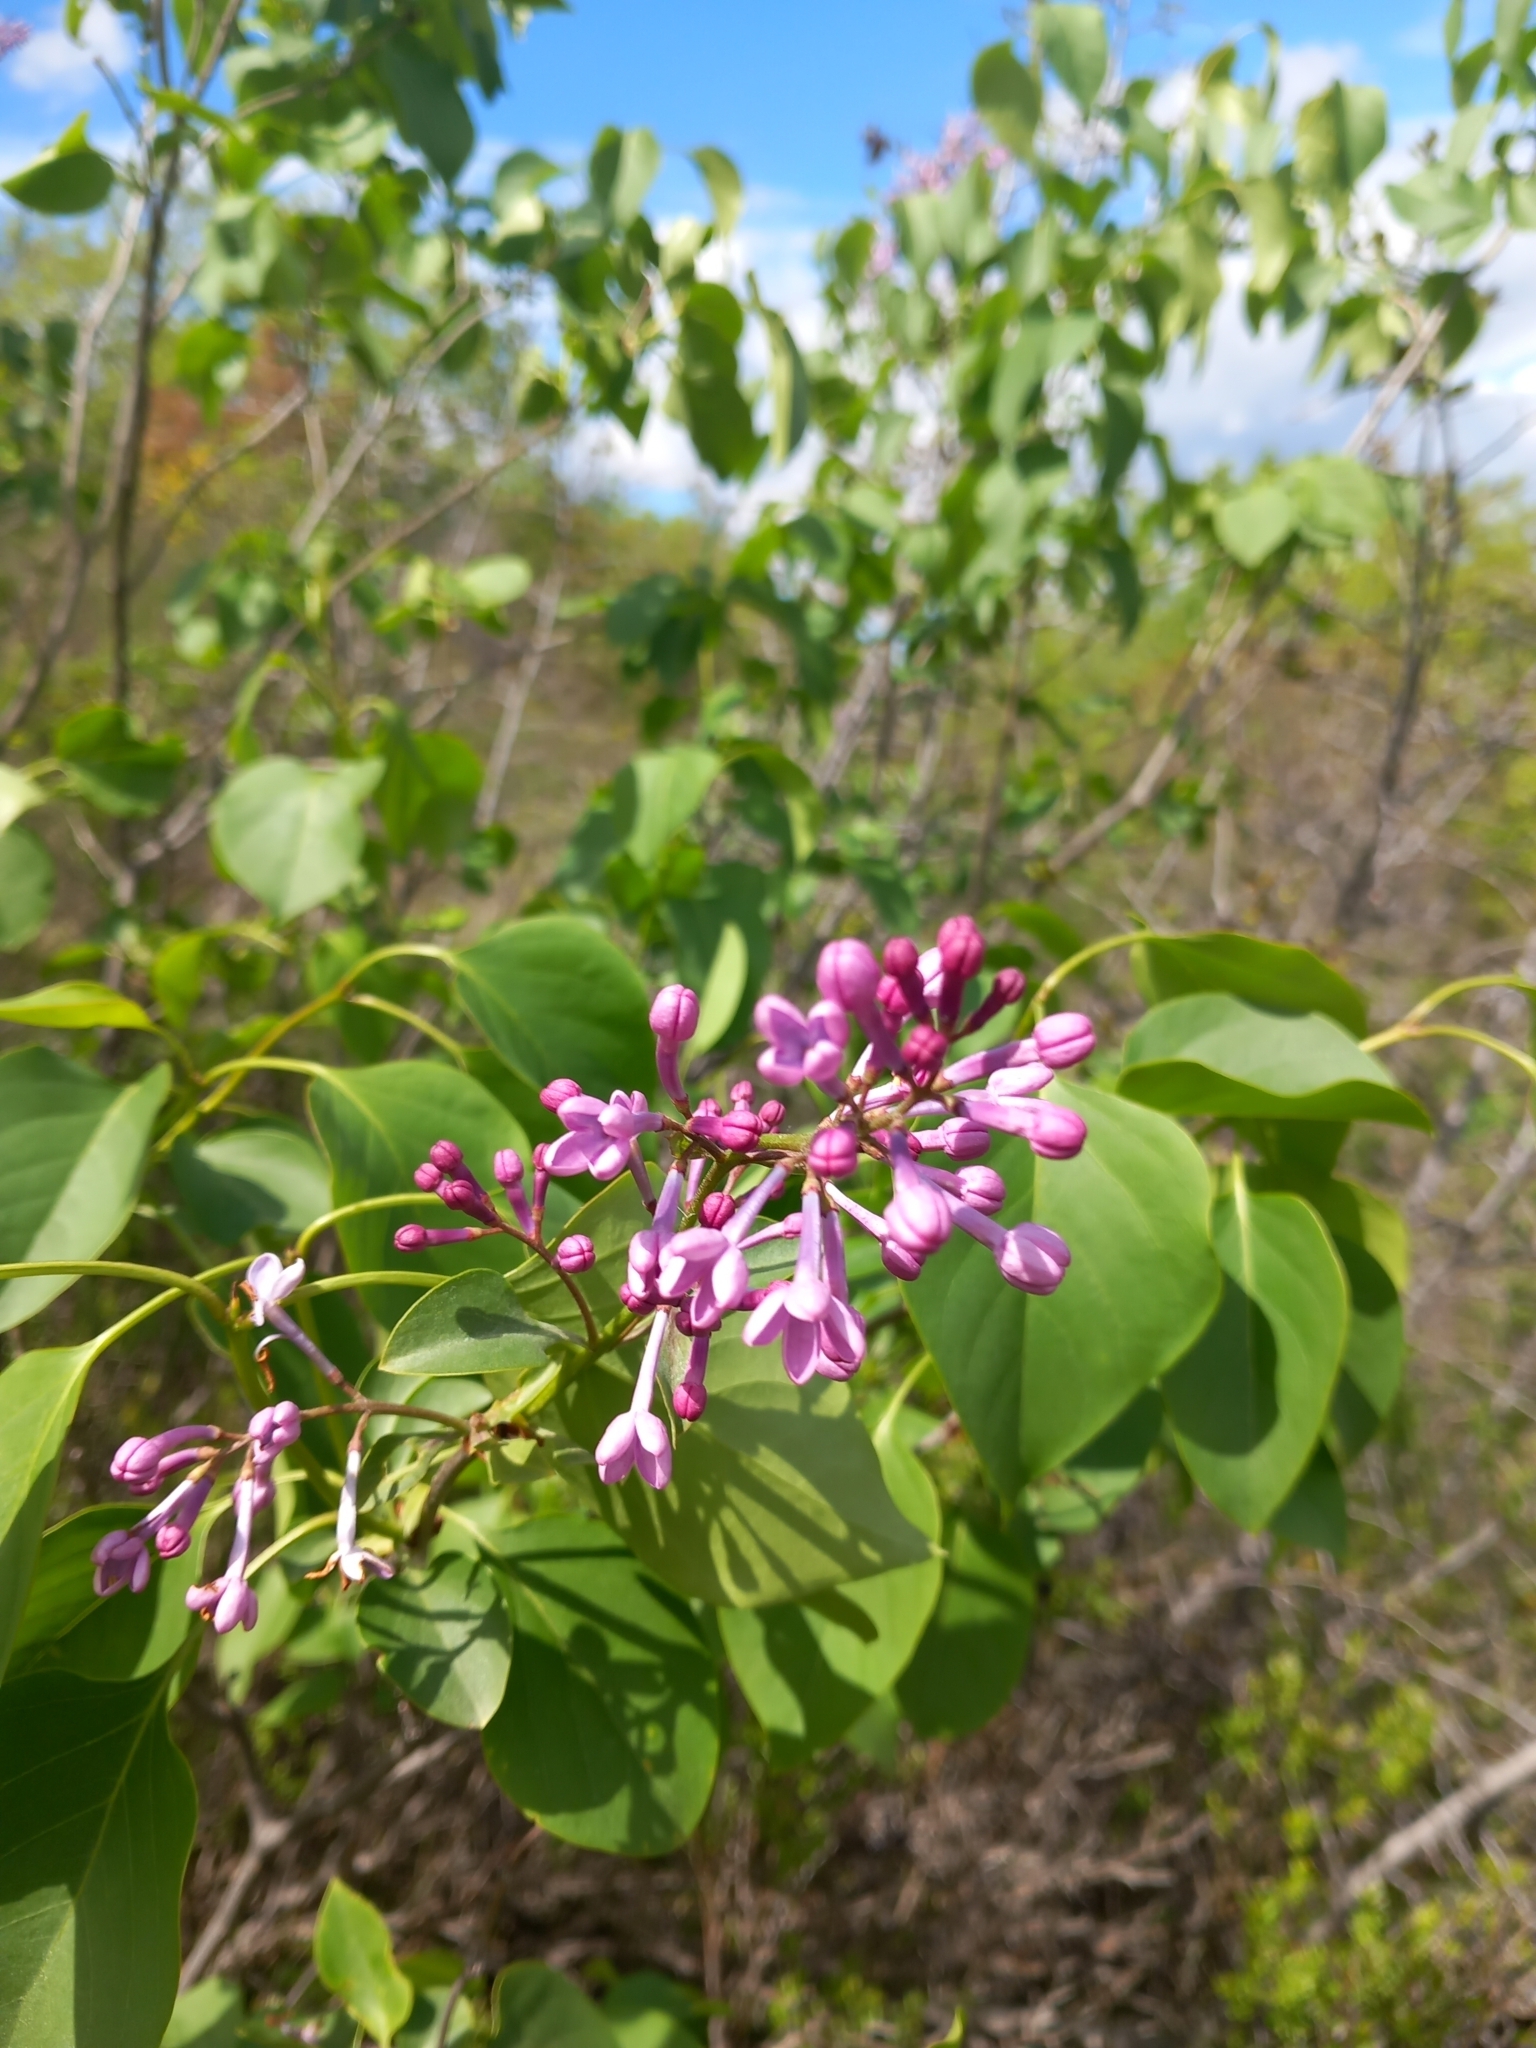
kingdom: Plantae
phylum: Tracheophyta
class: Magnoliopsida
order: Lamiales
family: Oleaceae
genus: Syringa
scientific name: Syringa vulgaris
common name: Common lilac
